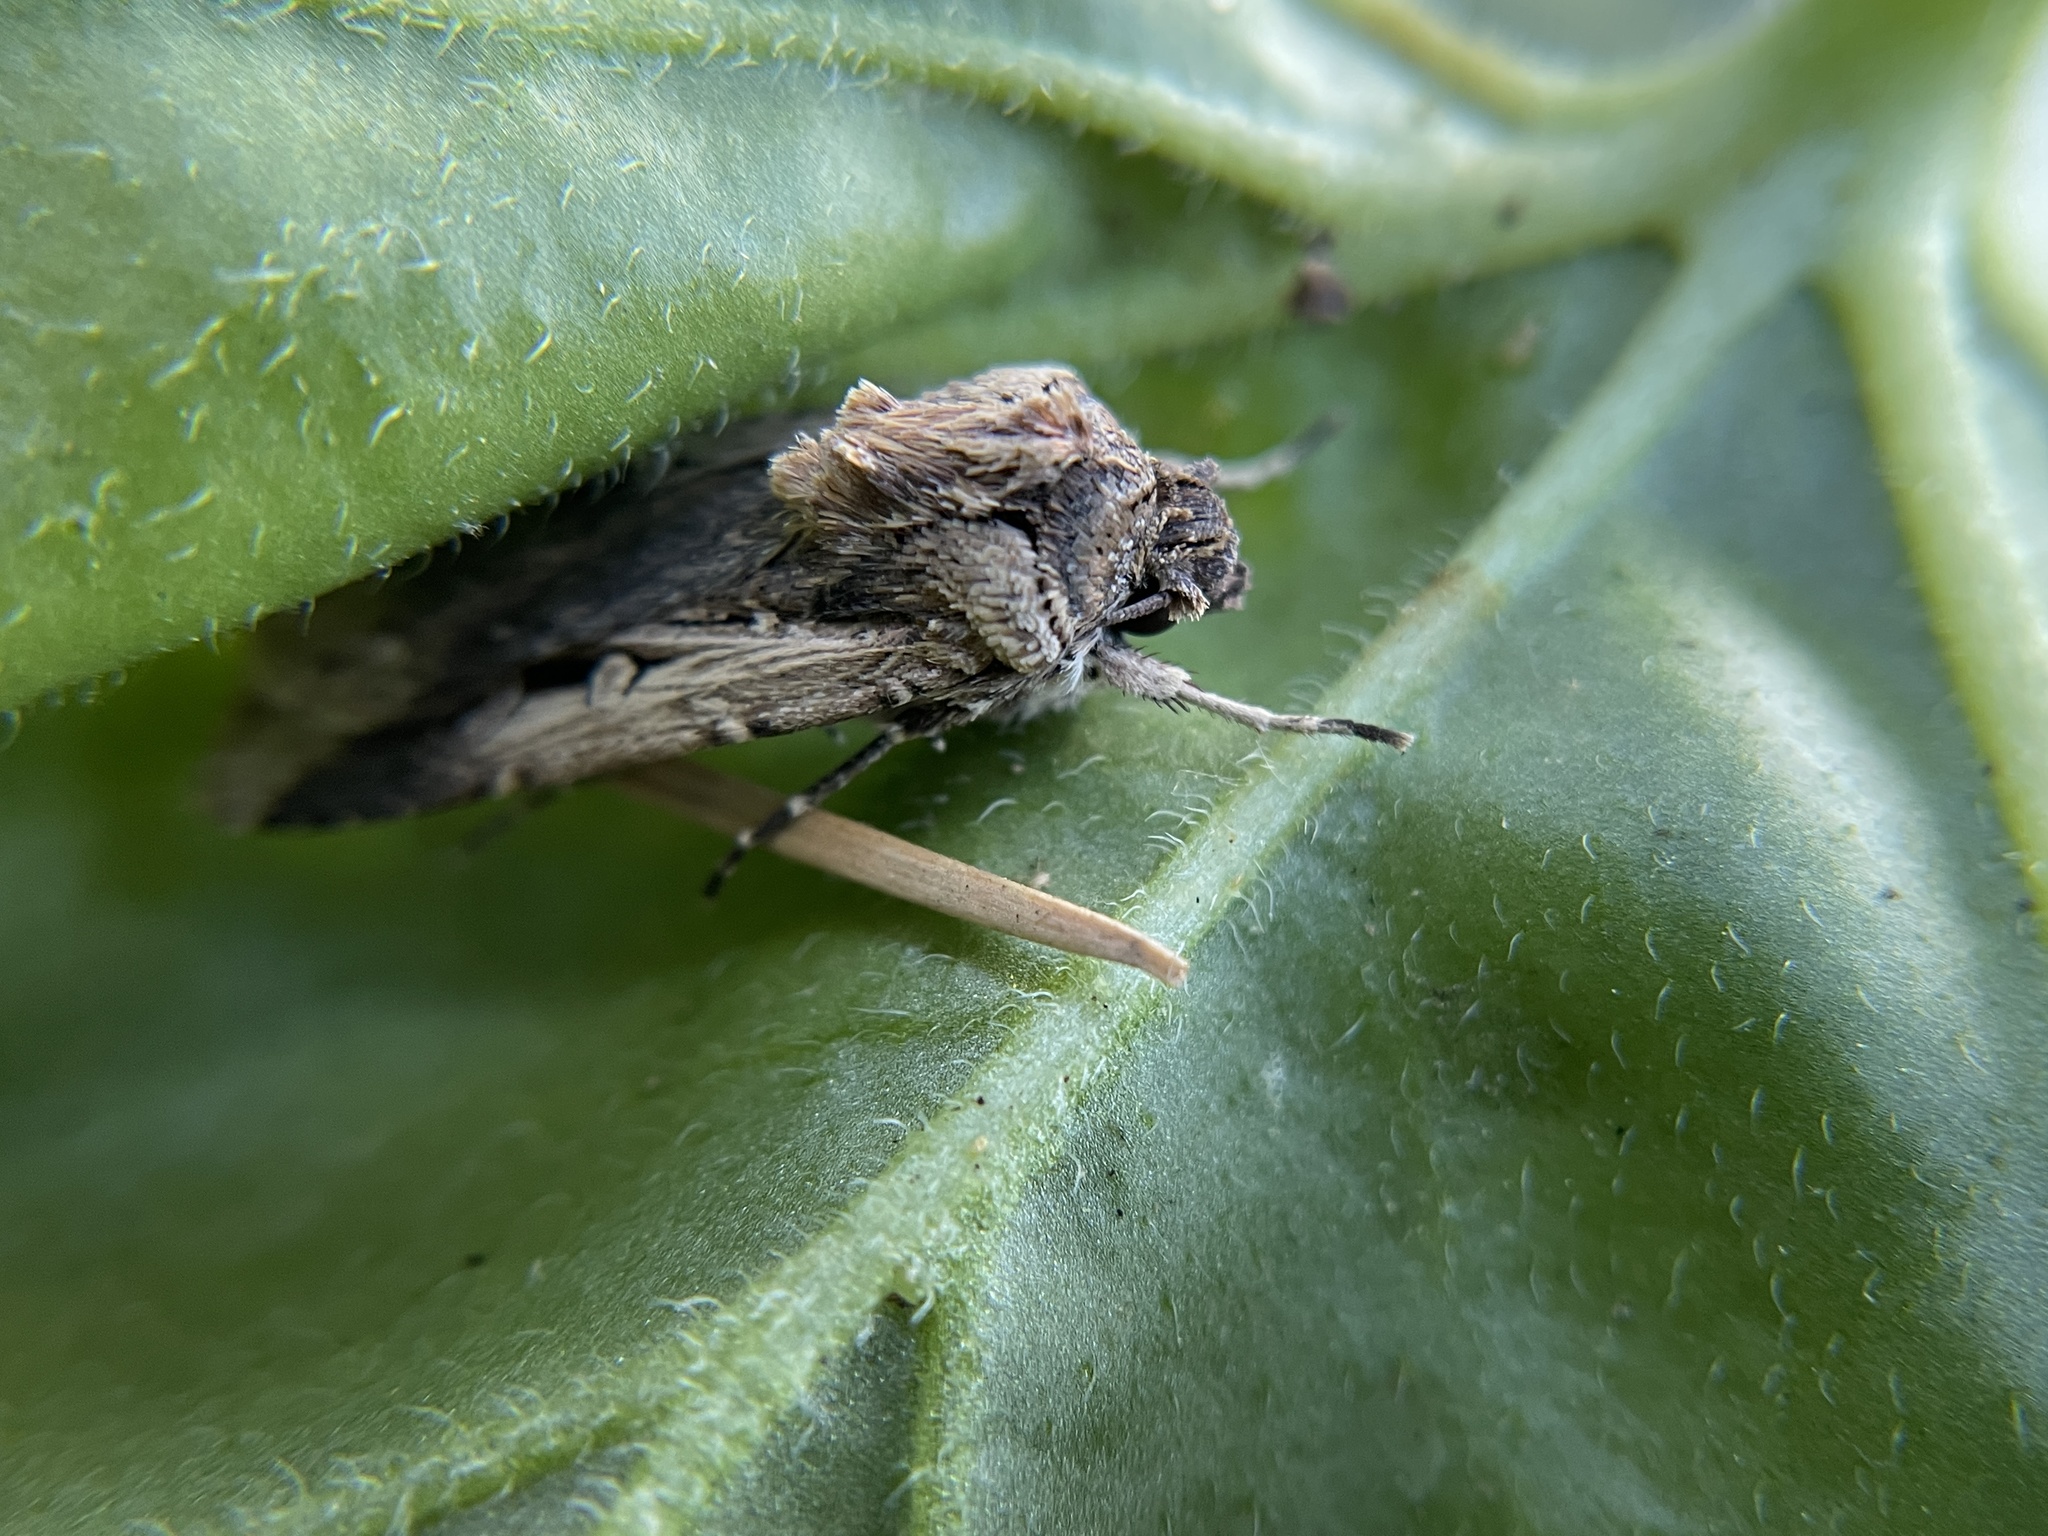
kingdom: Animalia
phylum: Arthropoda
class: Insecta
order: Lepidoptera
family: Noctuidae
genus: Feltia
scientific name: Feltia subterranea
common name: Granulate cutworm
